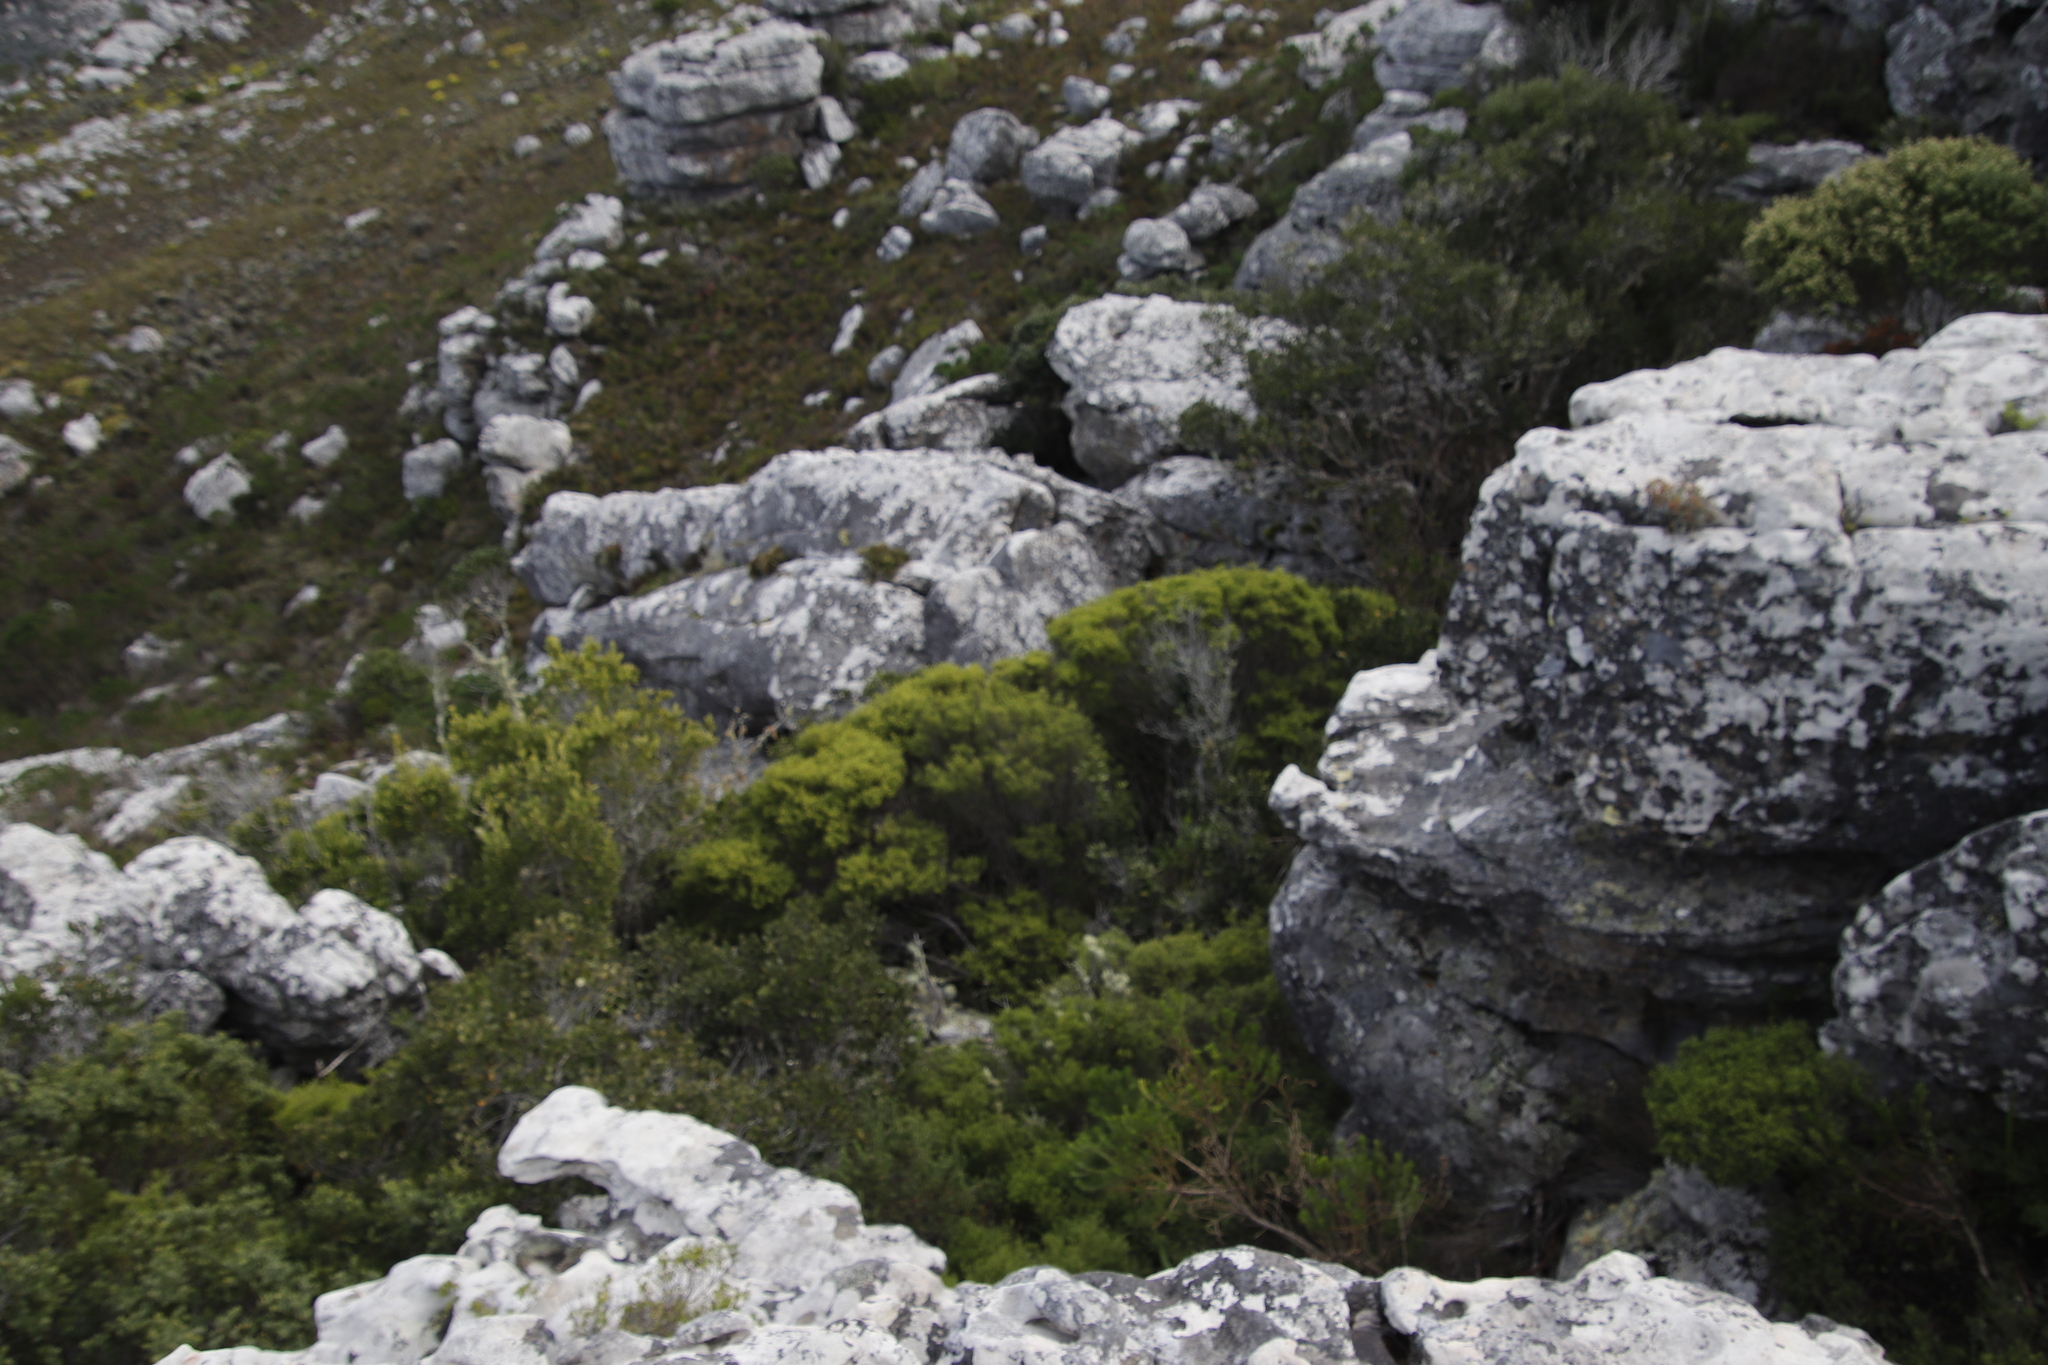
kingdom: Plantae
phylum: Tracheophyta
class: Magnoliopsida
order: Sapindales
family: Rutaceae
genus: Coleonema
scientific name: Coleonema album
